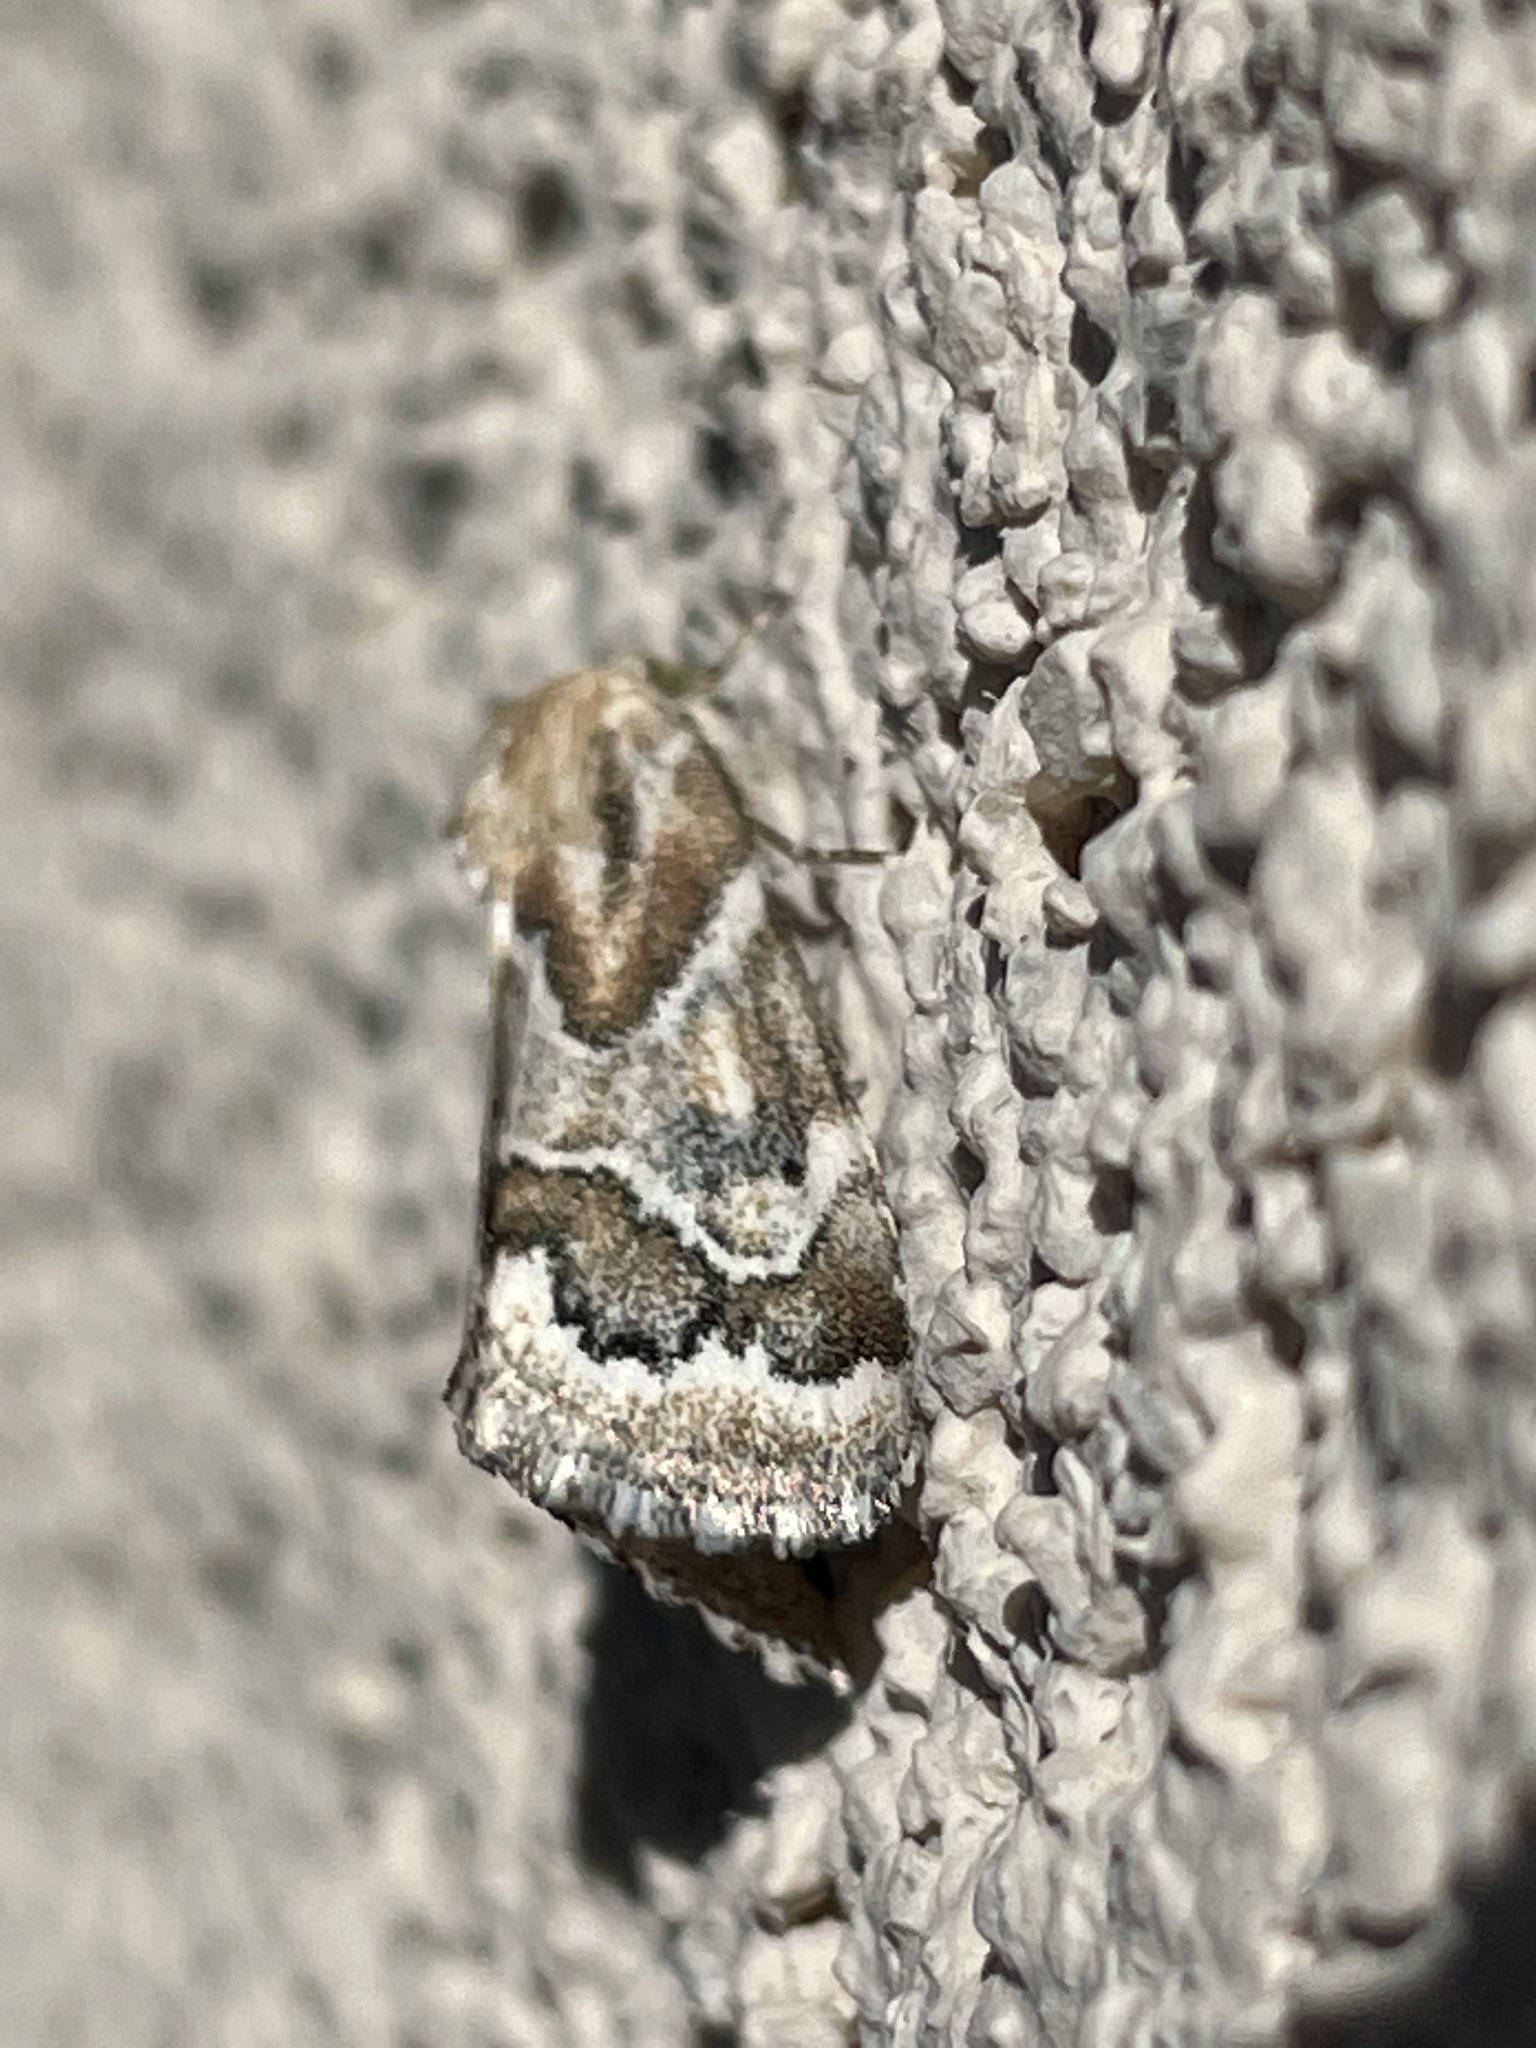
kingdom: Animalia
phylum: Arthropoda
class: Insecta
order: Lepidoptera
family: Noctuidae
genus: Schinia
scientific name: Schinia acutilinea
